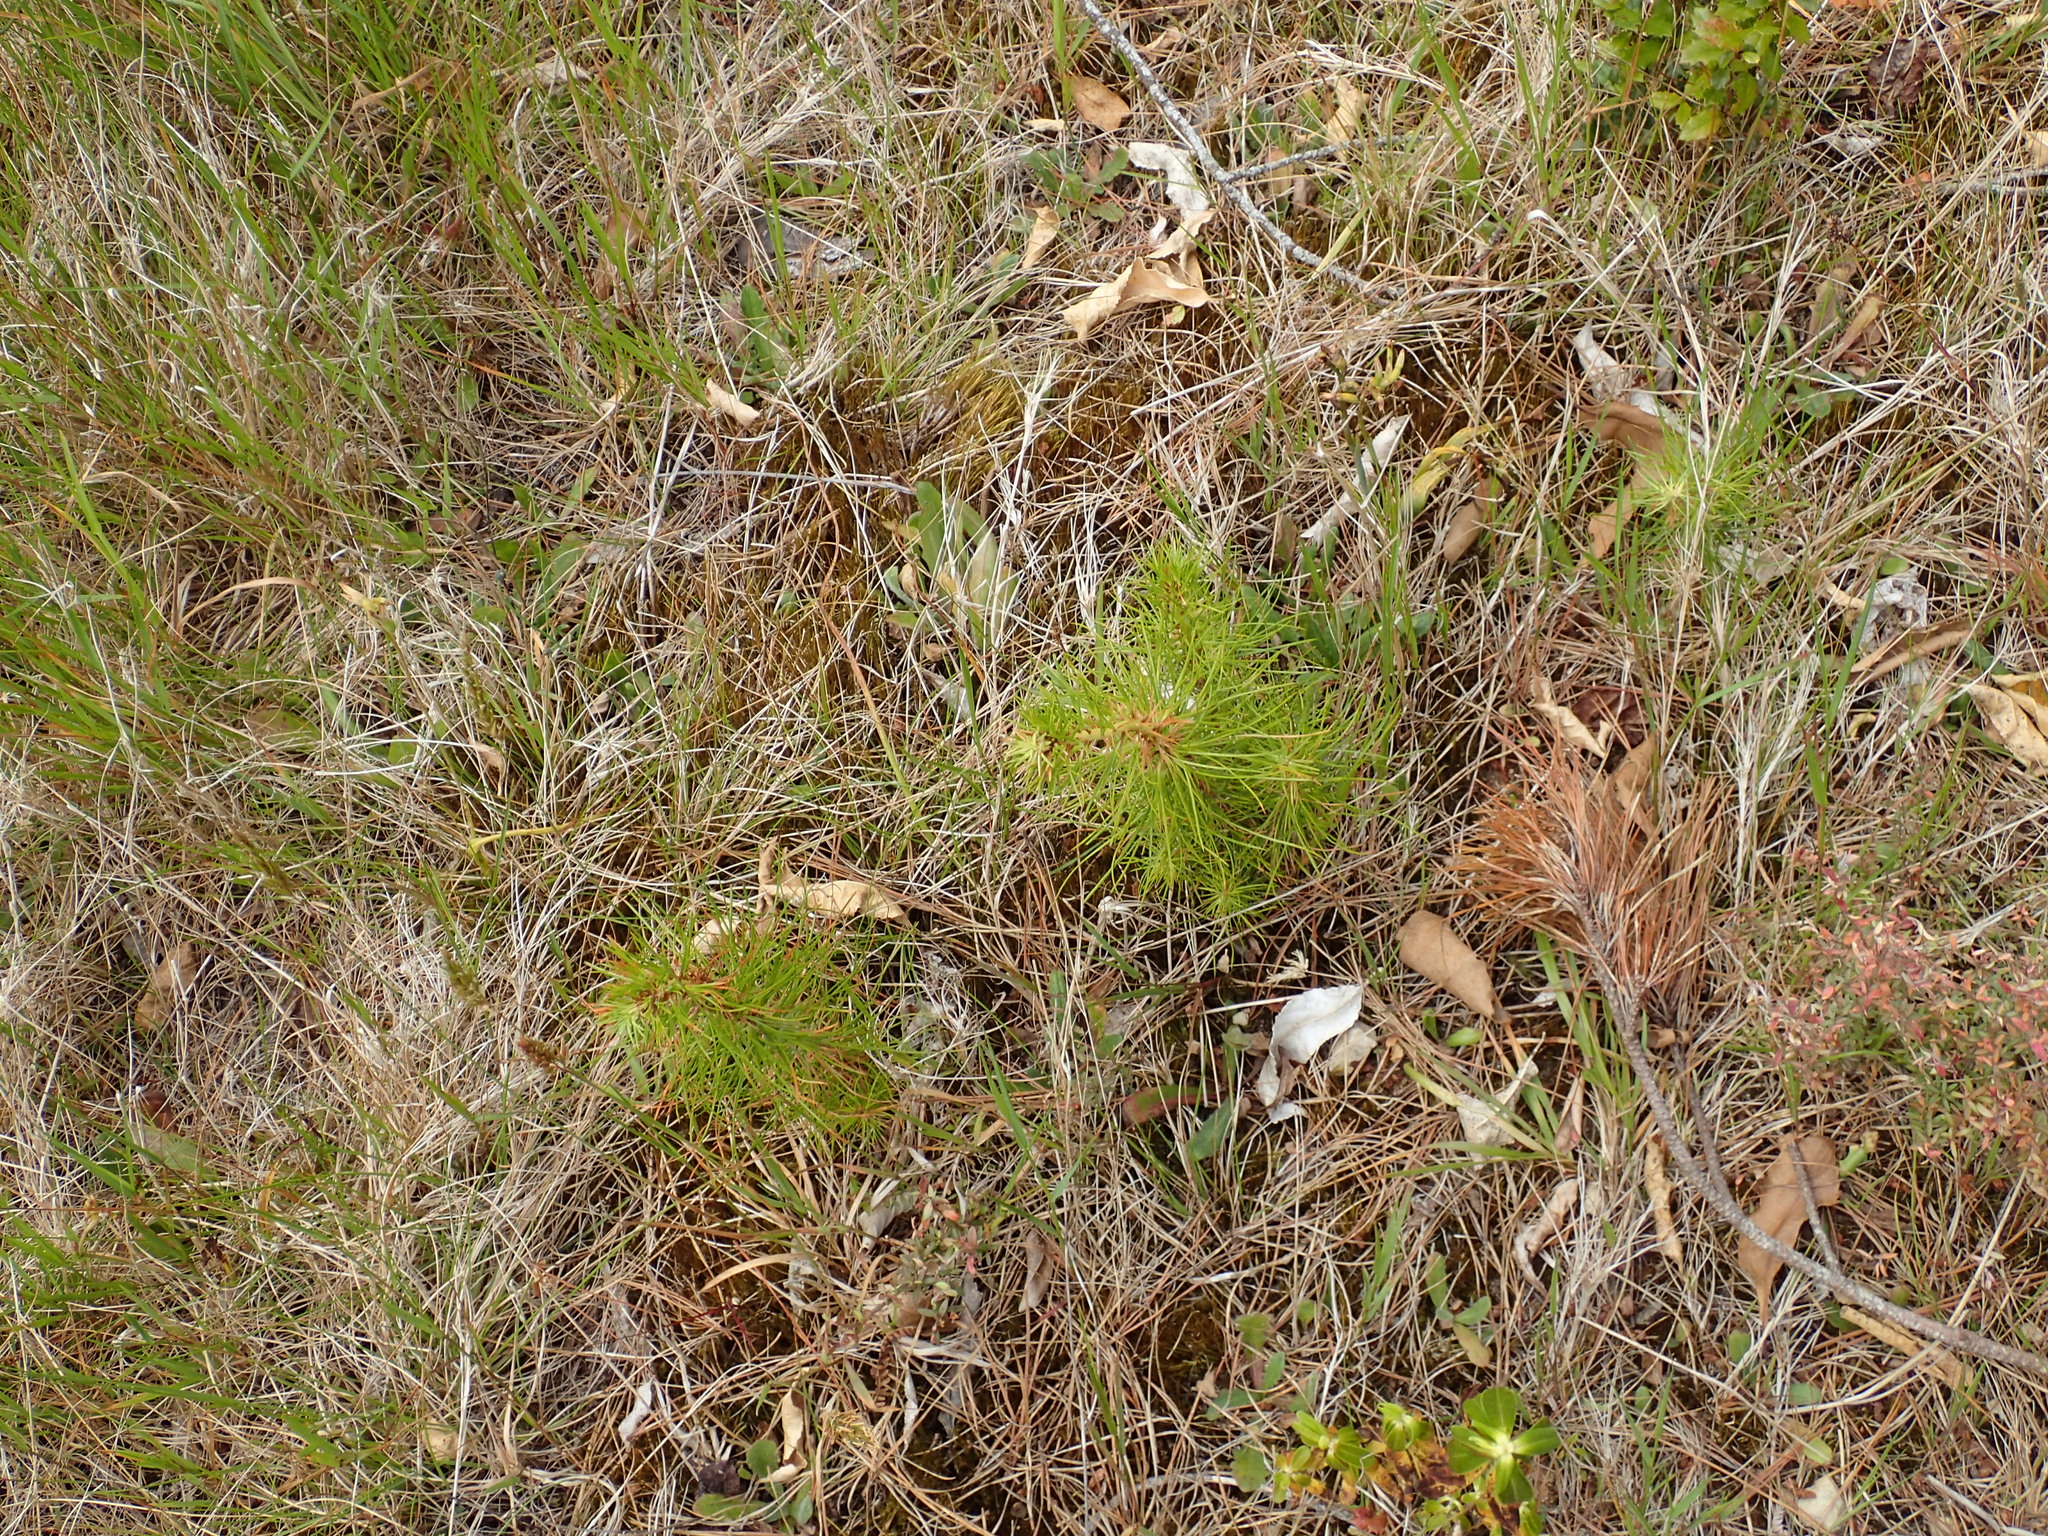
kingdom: Plantae
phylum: Tracheophyta
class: Pinopsida
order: Pinales
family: Pinaceae
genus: Pinus
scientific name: Pinus radiata
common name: Monterey pine
